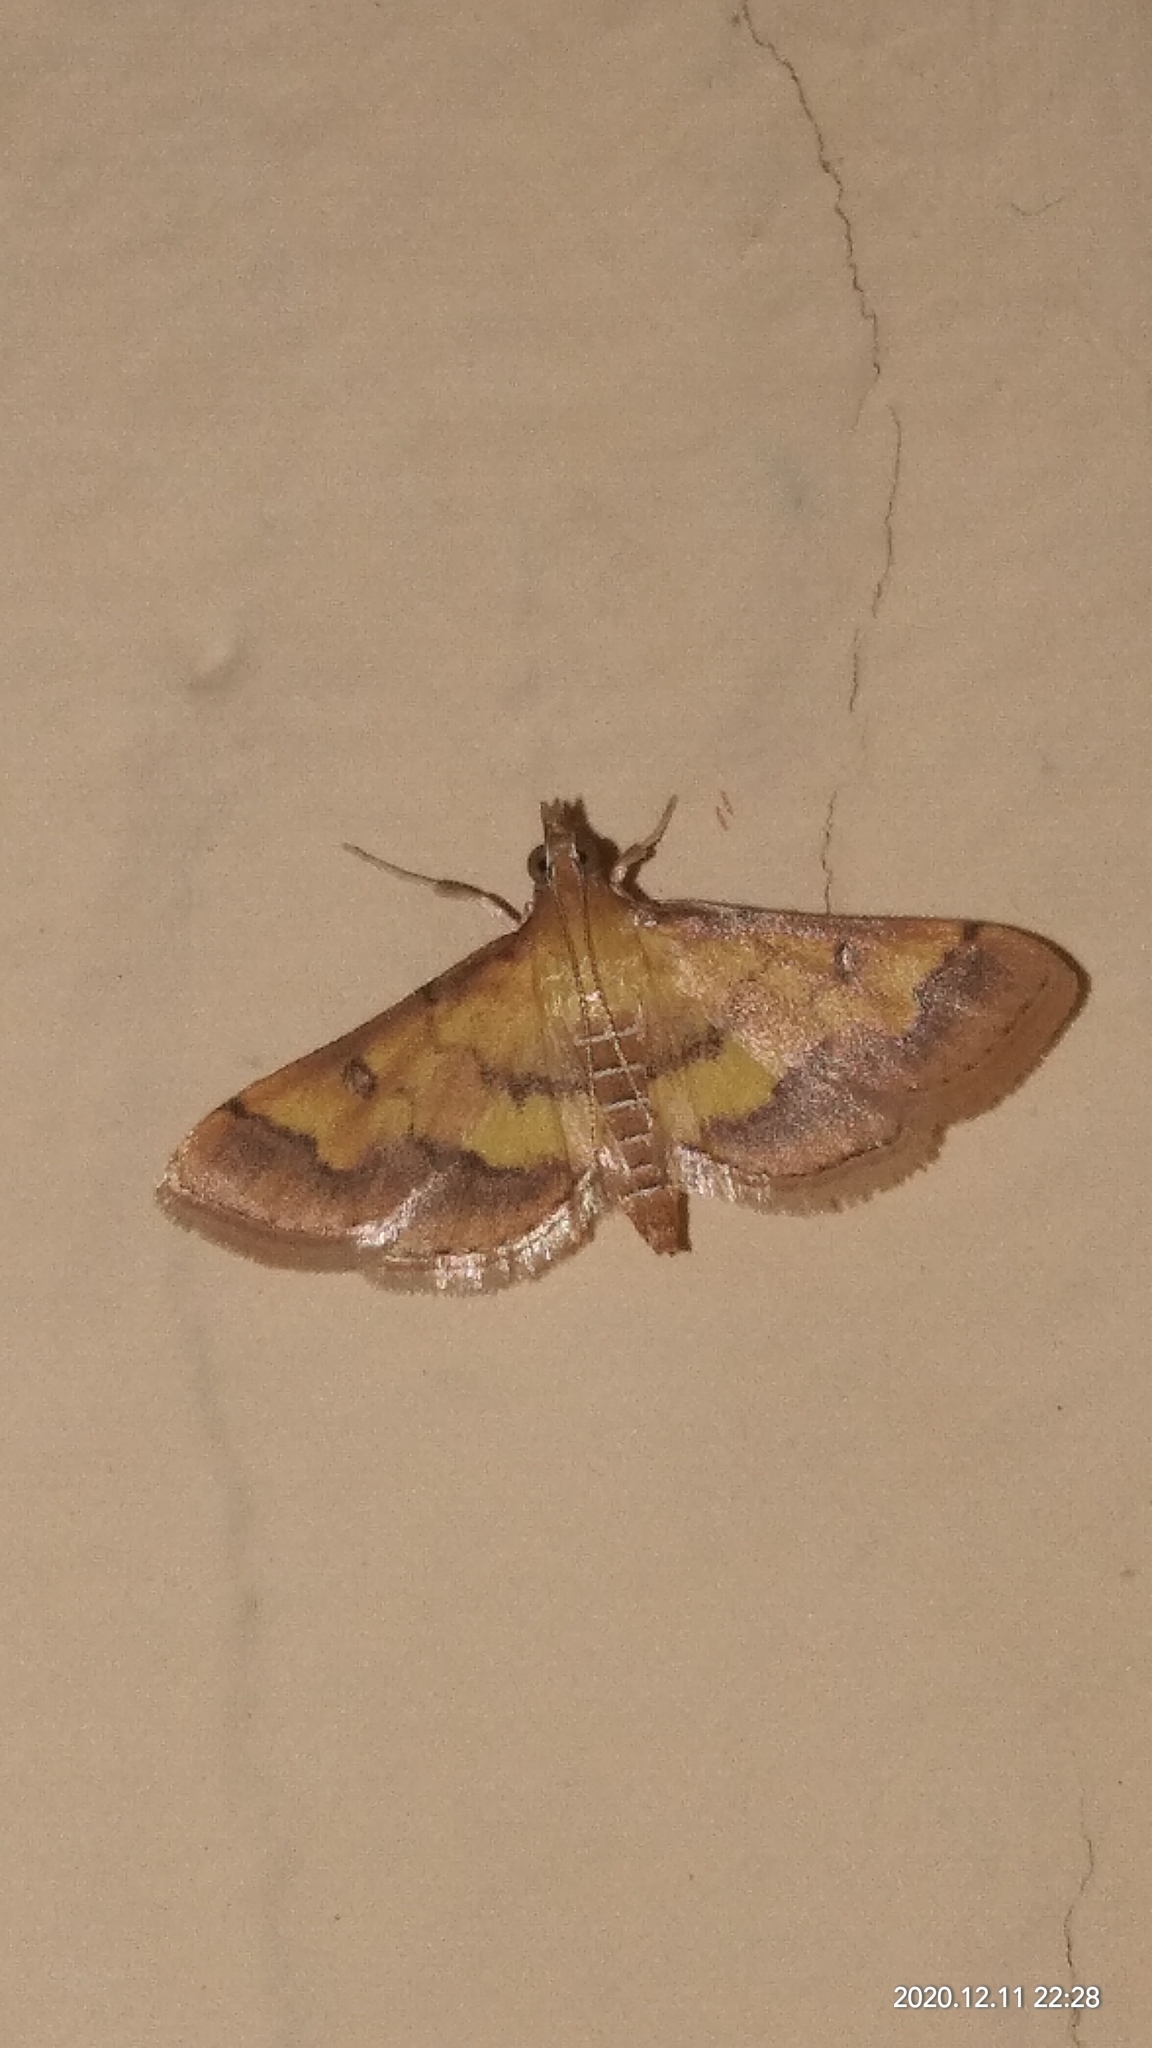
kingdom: Animalia
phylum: Arthropoda
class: Insecta
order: Lepidoptera
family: Crambidae
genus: Ischnurges
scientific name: Ischnurges luteomarginalis
